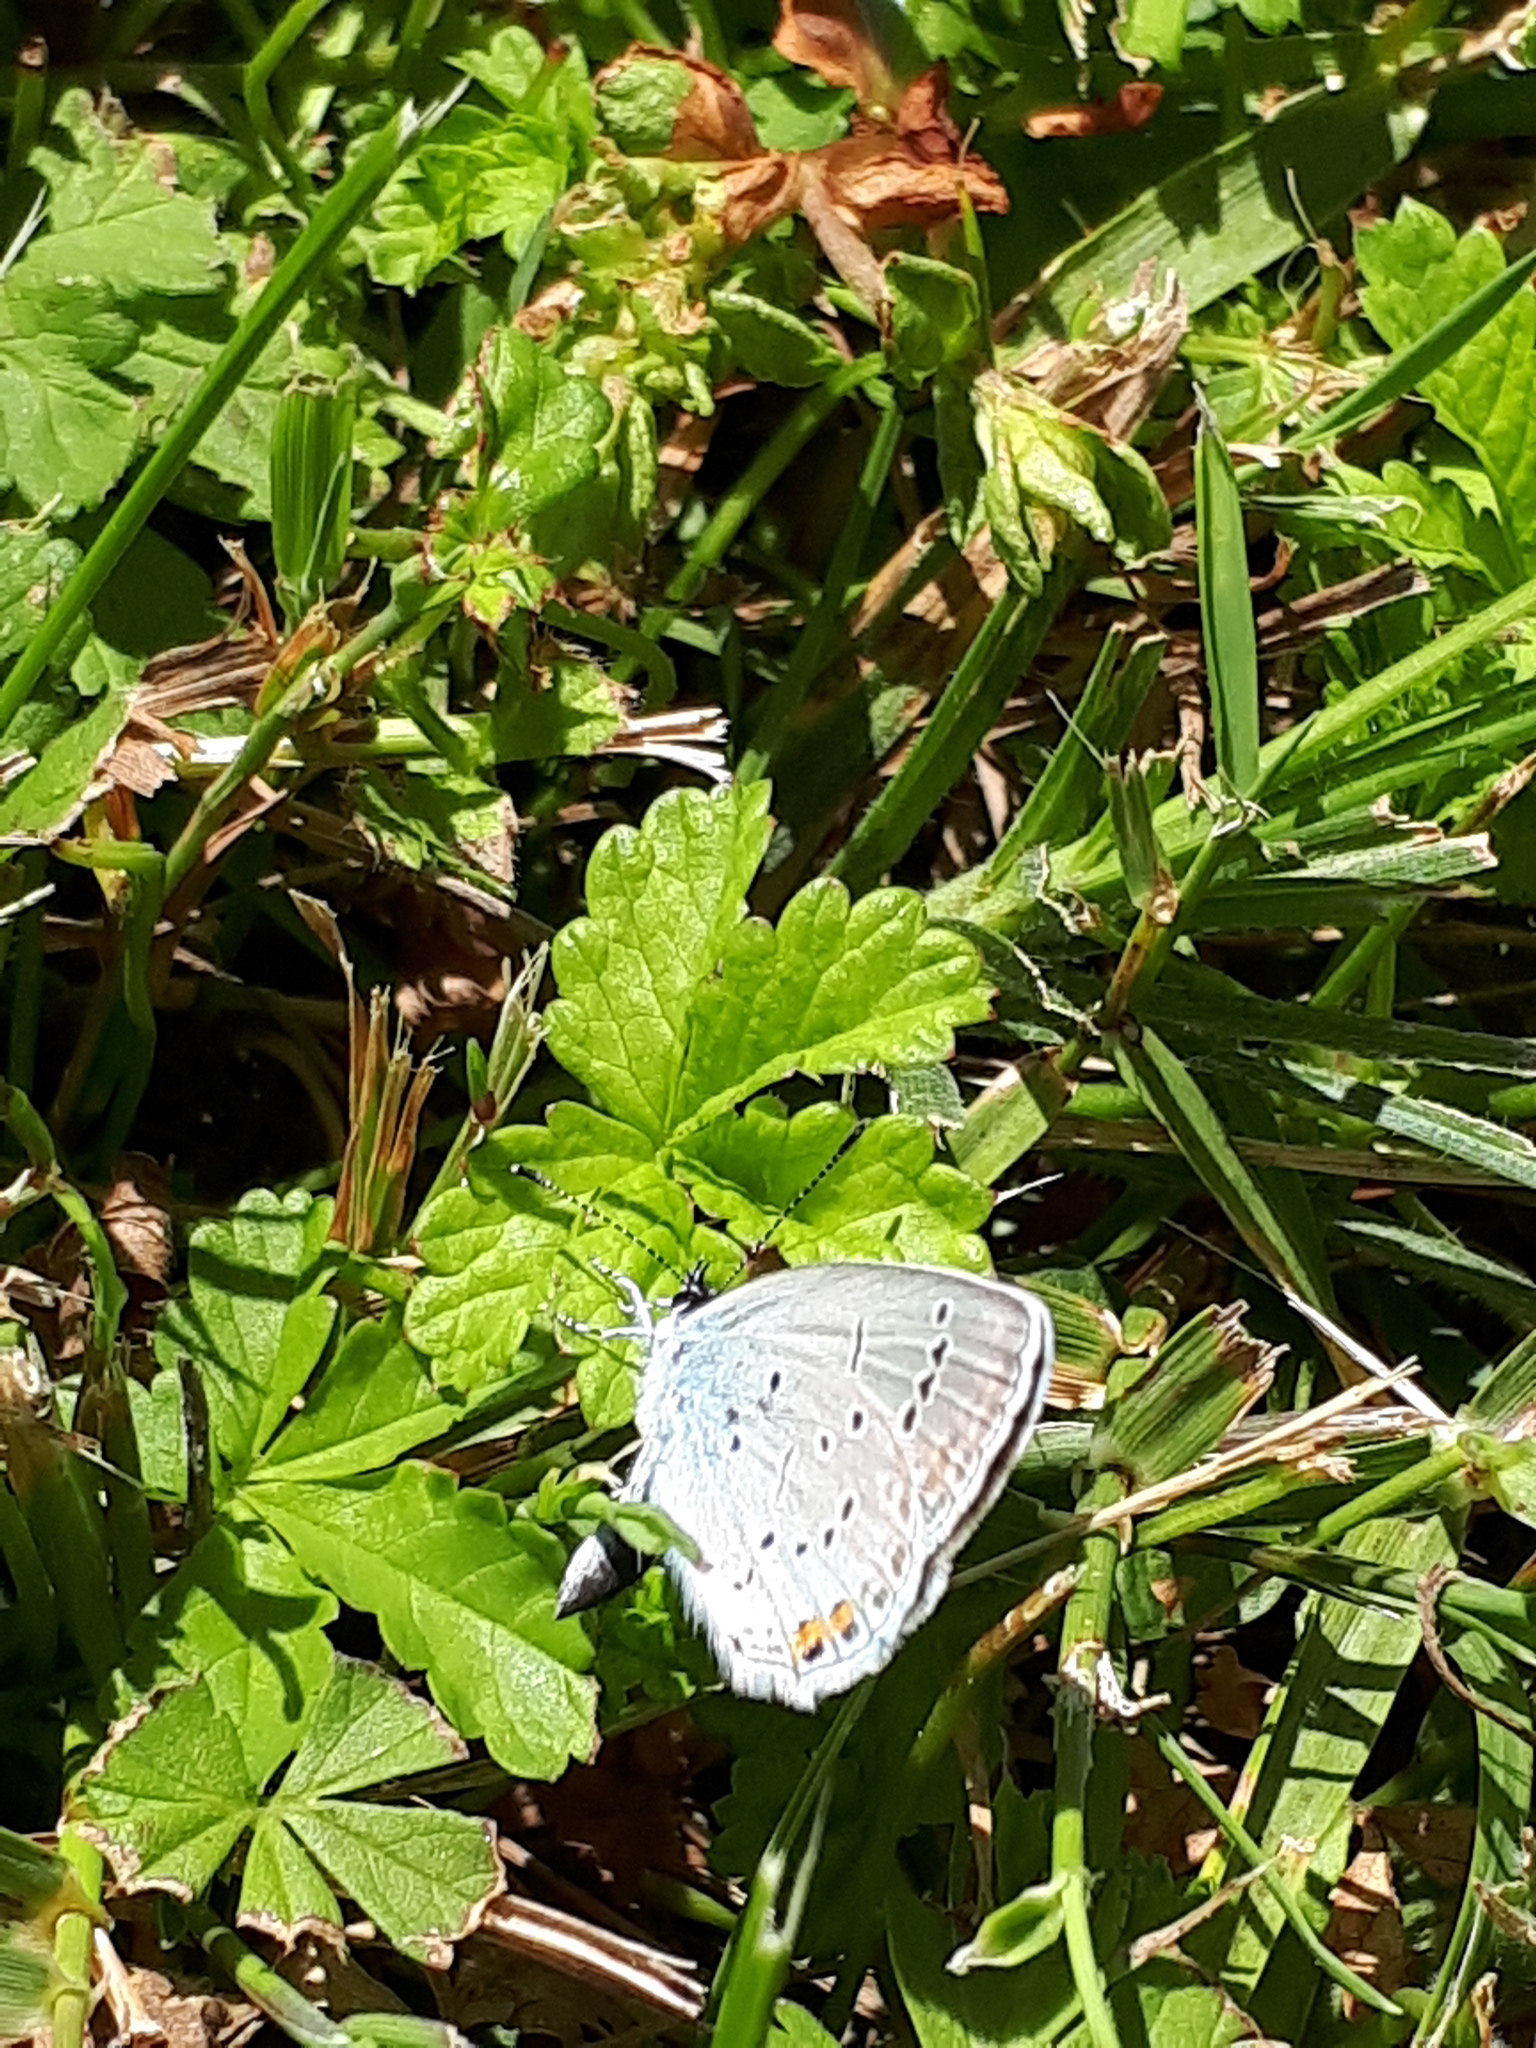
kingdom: Animalia
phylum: Arthropoda
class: Insecta
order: Lepidoptera
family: Lycaenidae
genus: Elkalyce
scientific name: Elkalyce argiades
